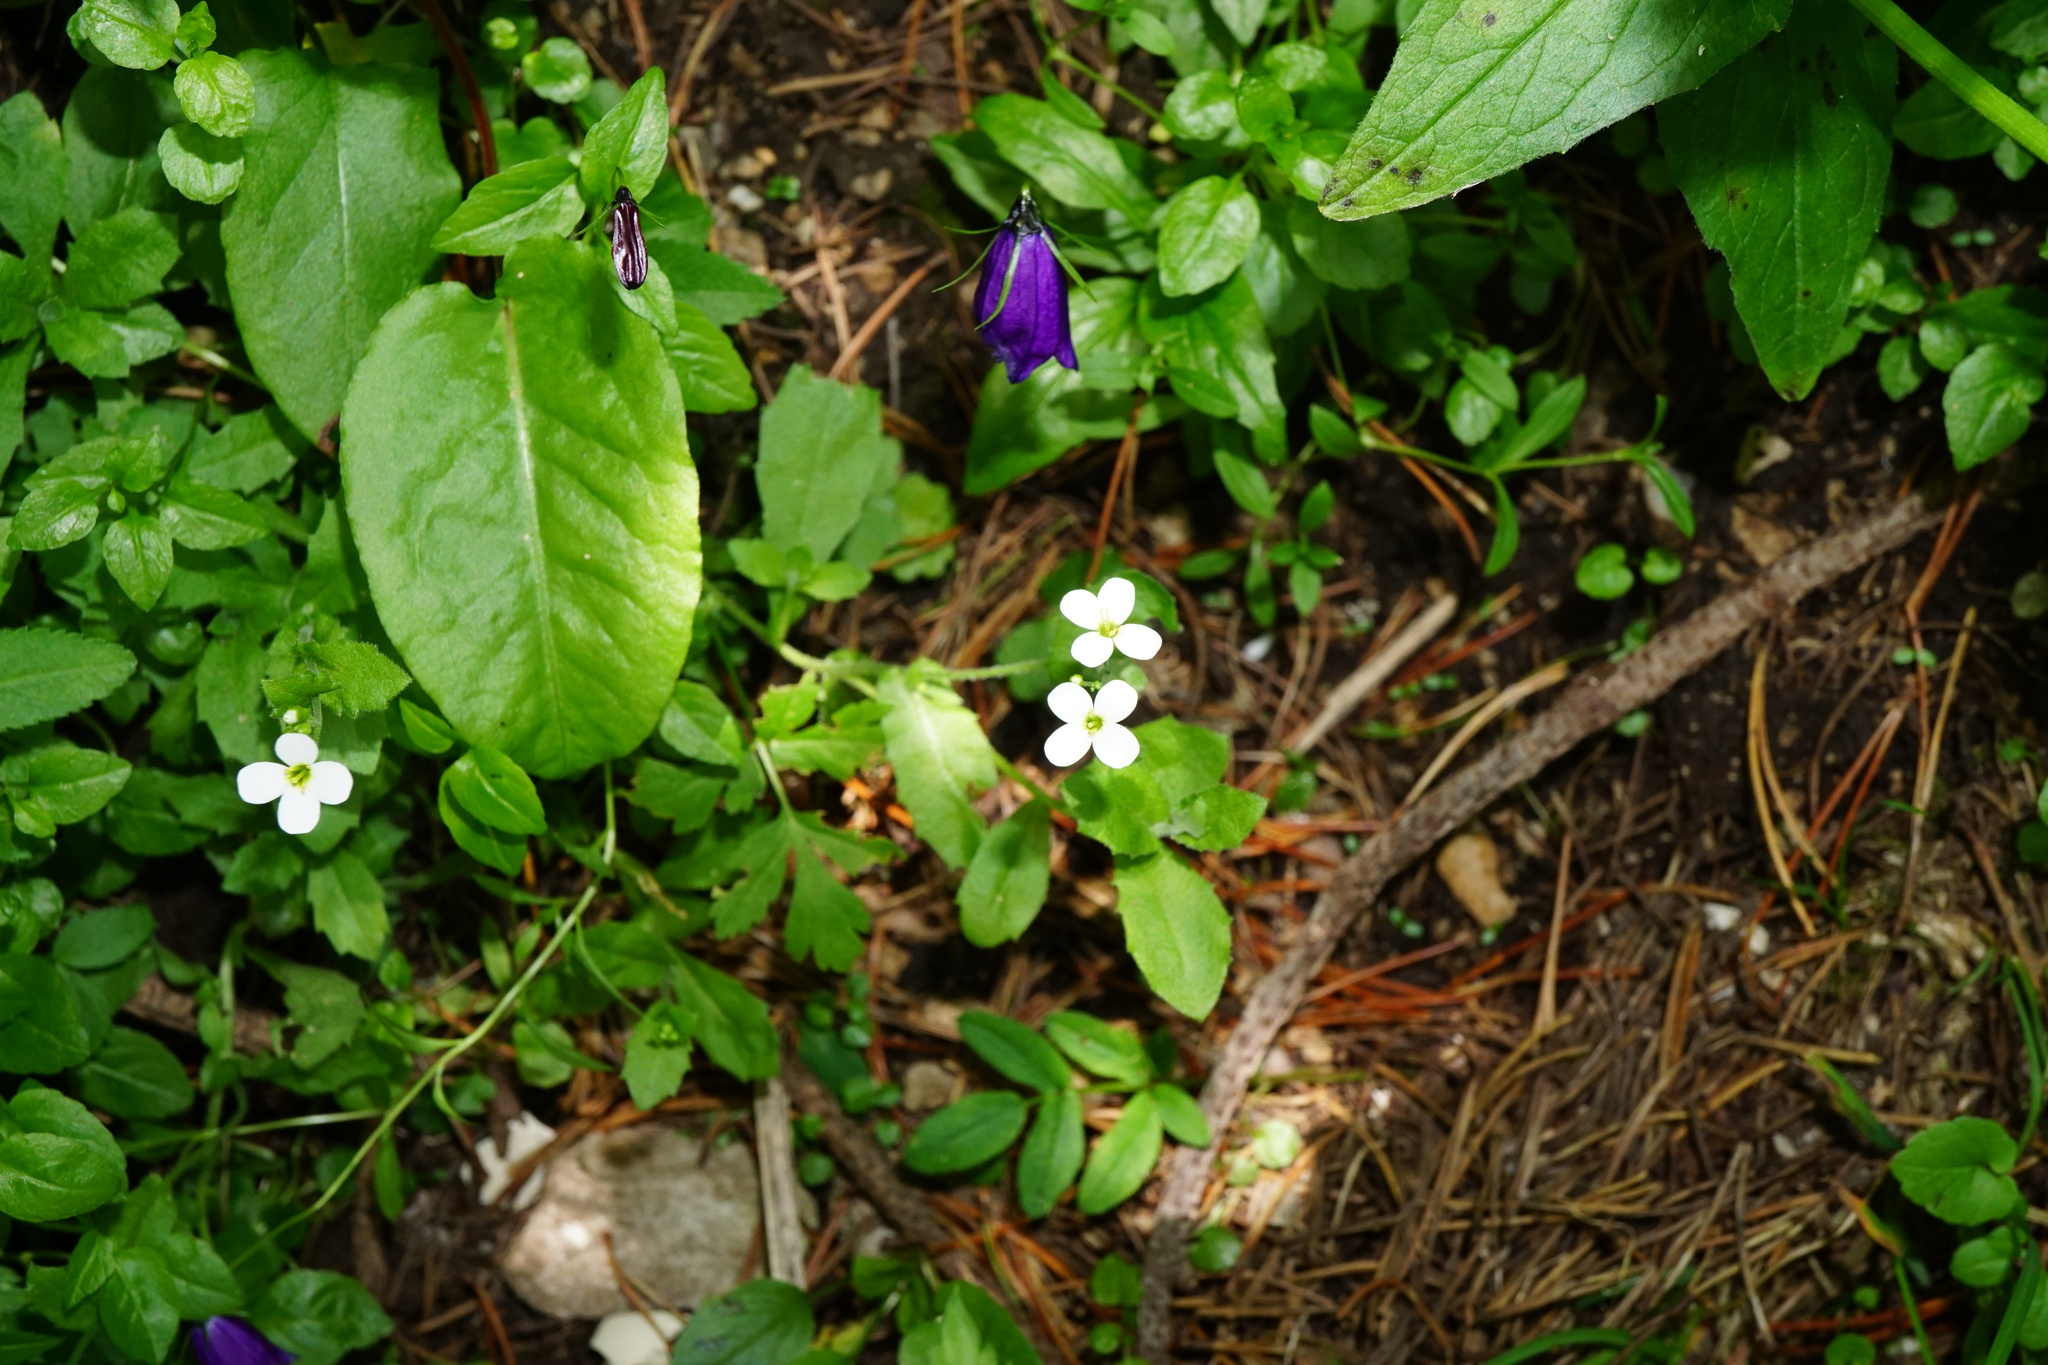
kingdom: Plantae
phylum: Tracheophyta
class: Magnoliopsida
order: Brassicales
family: Brassicaceae
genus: Arabis
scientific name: Arabis alpina
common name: Alpine rock-cress
